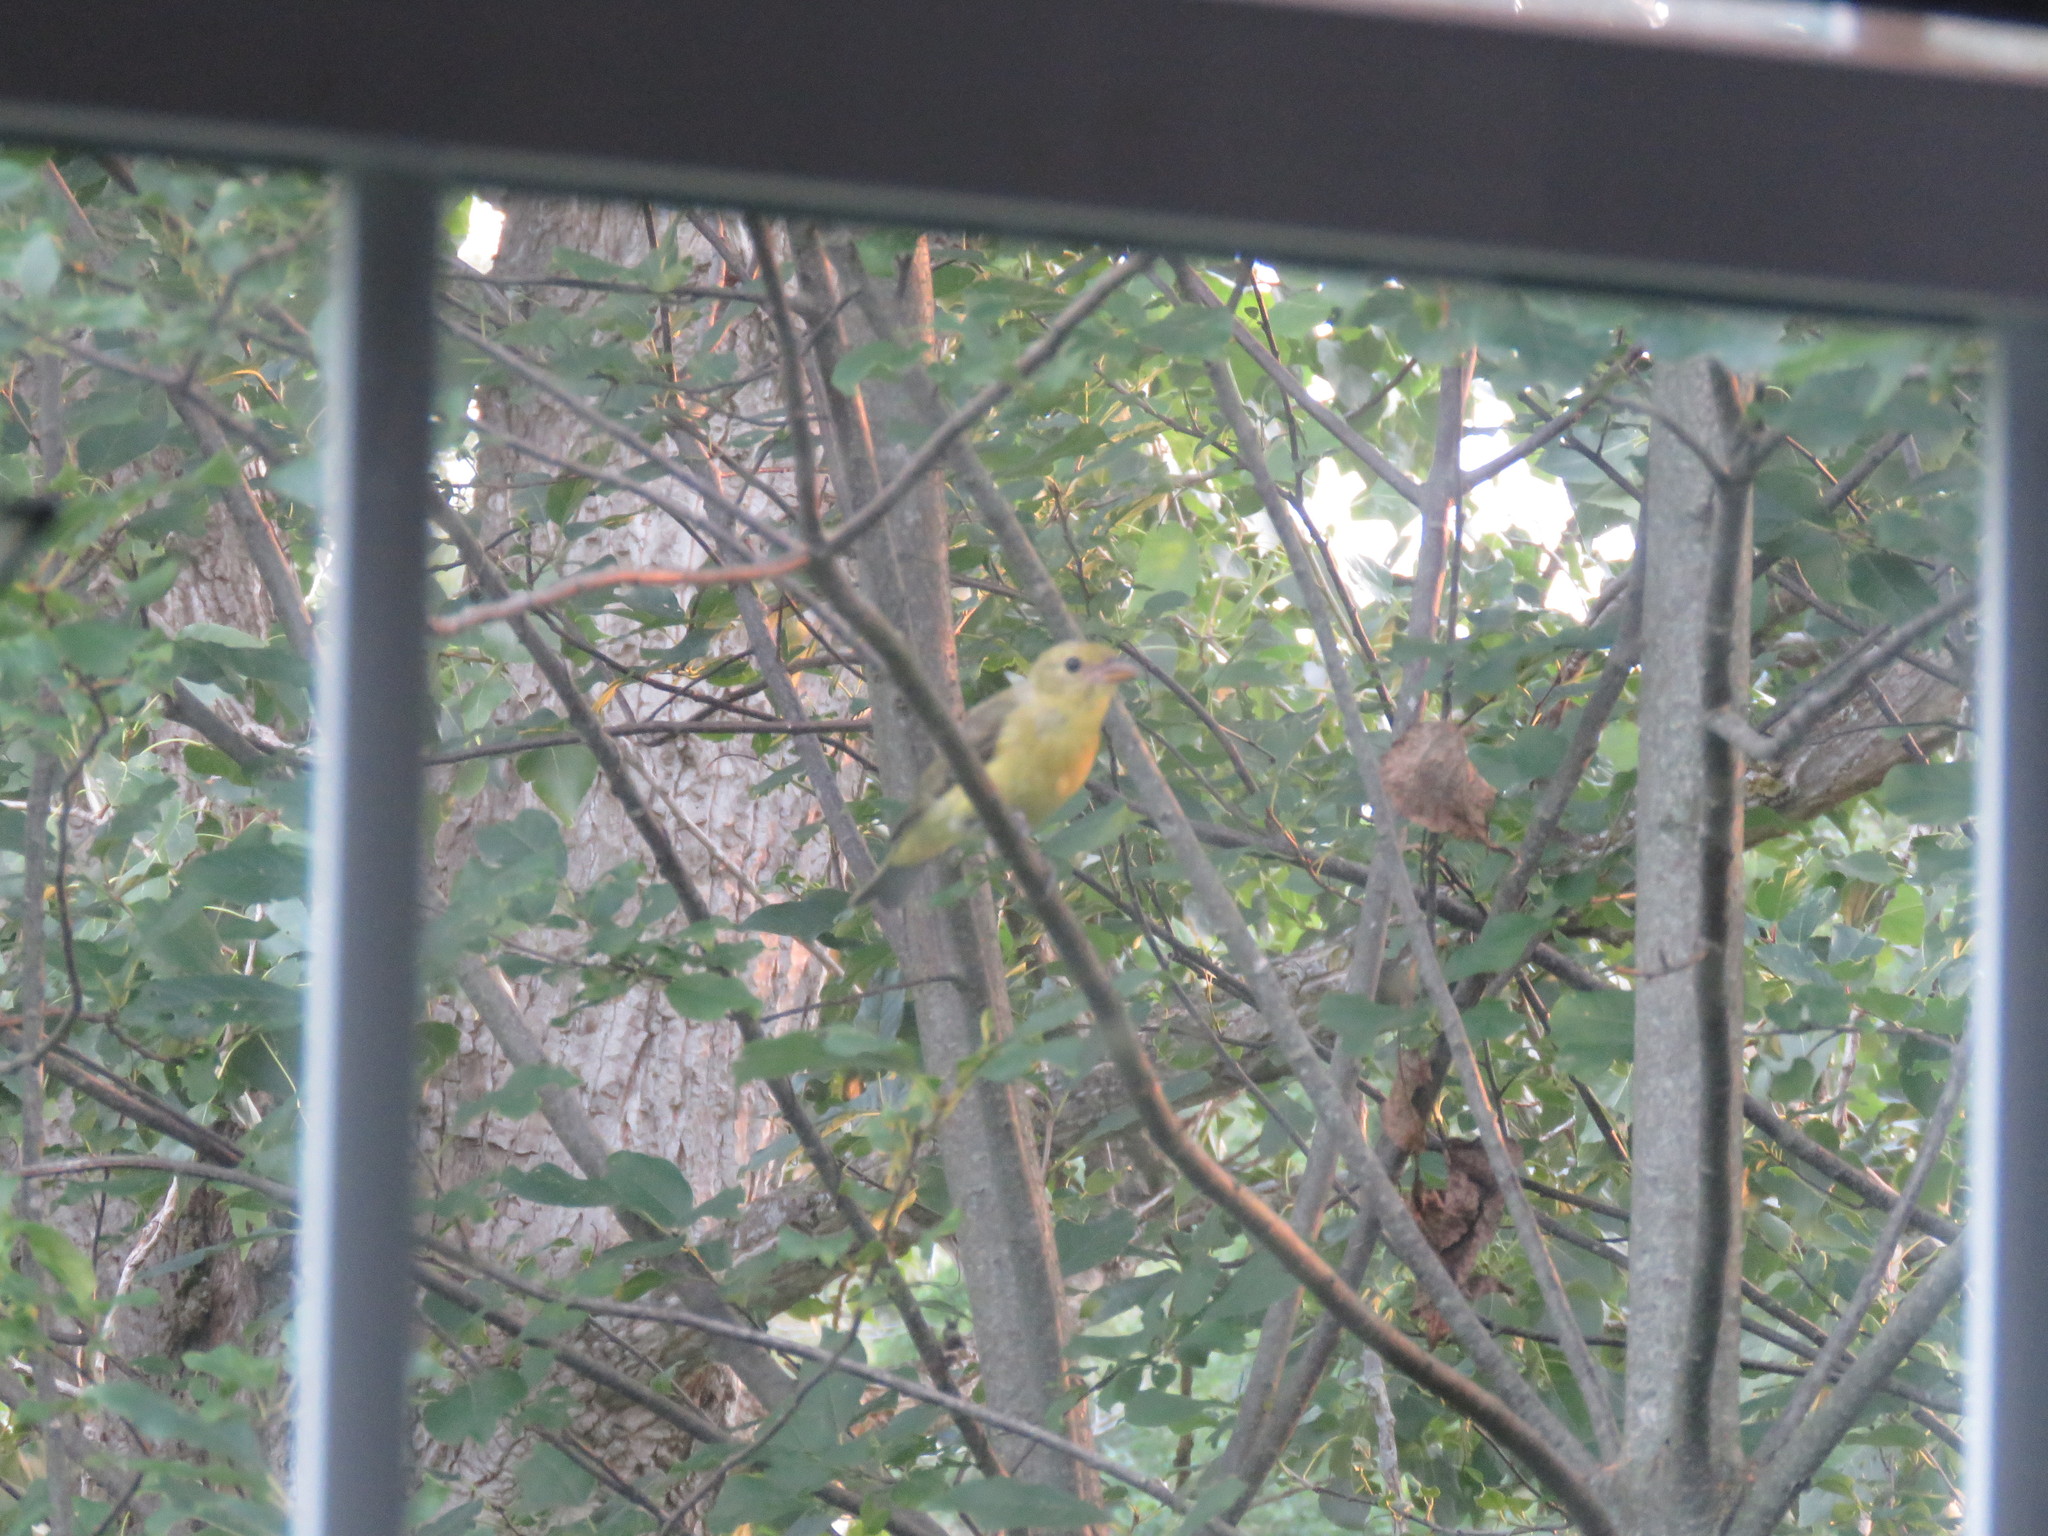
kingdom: Animalia
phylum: Chordata
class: Aves
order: Passeriformes
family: Cardinalidae
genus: Piranga
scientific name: Piranga olivacea
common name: Scarlet tanager
